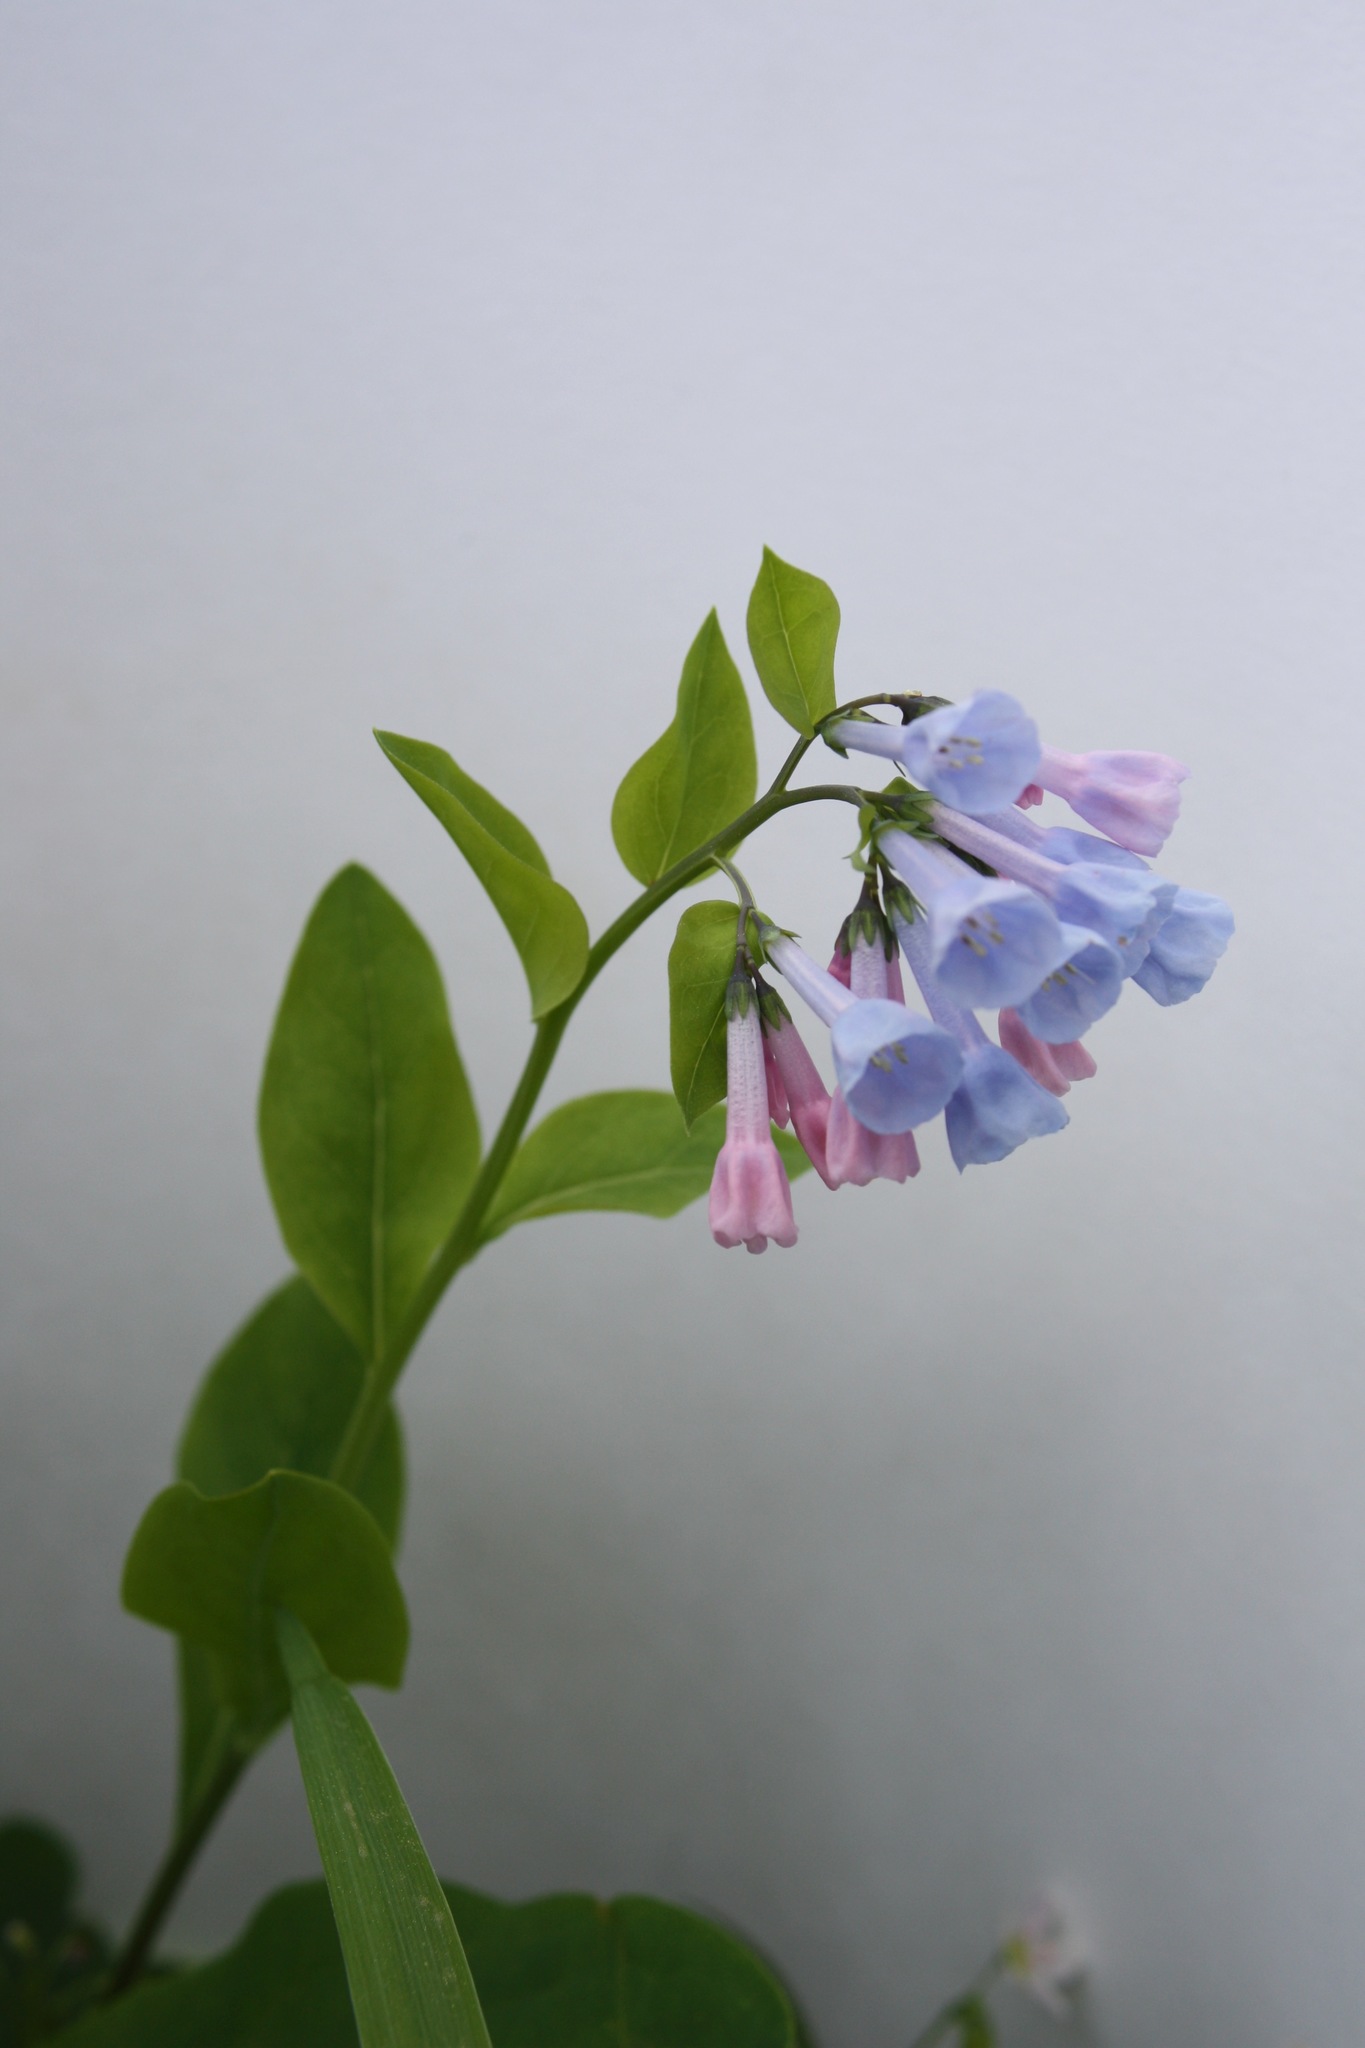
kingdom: Plantae
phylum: Tracheophyta
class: Magnoliopsida
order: Boraginales
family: Boraginaceae
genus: Mertensia
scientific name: Mertensia virginica
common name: Virginia bluebells
